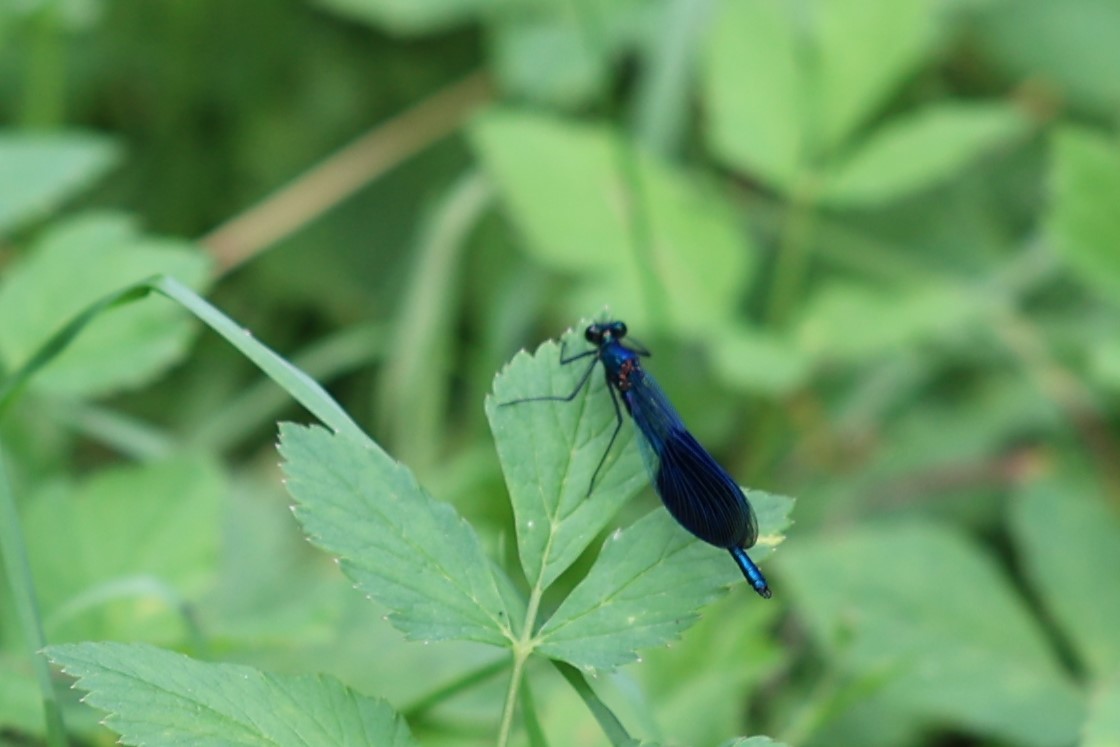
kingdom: Animalia
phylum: Arthropoda
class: Insecta
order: Odonata
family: Calopterygidae
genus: Calopteryx
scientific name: Calopteryx splendens
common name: Banded demoiselle
